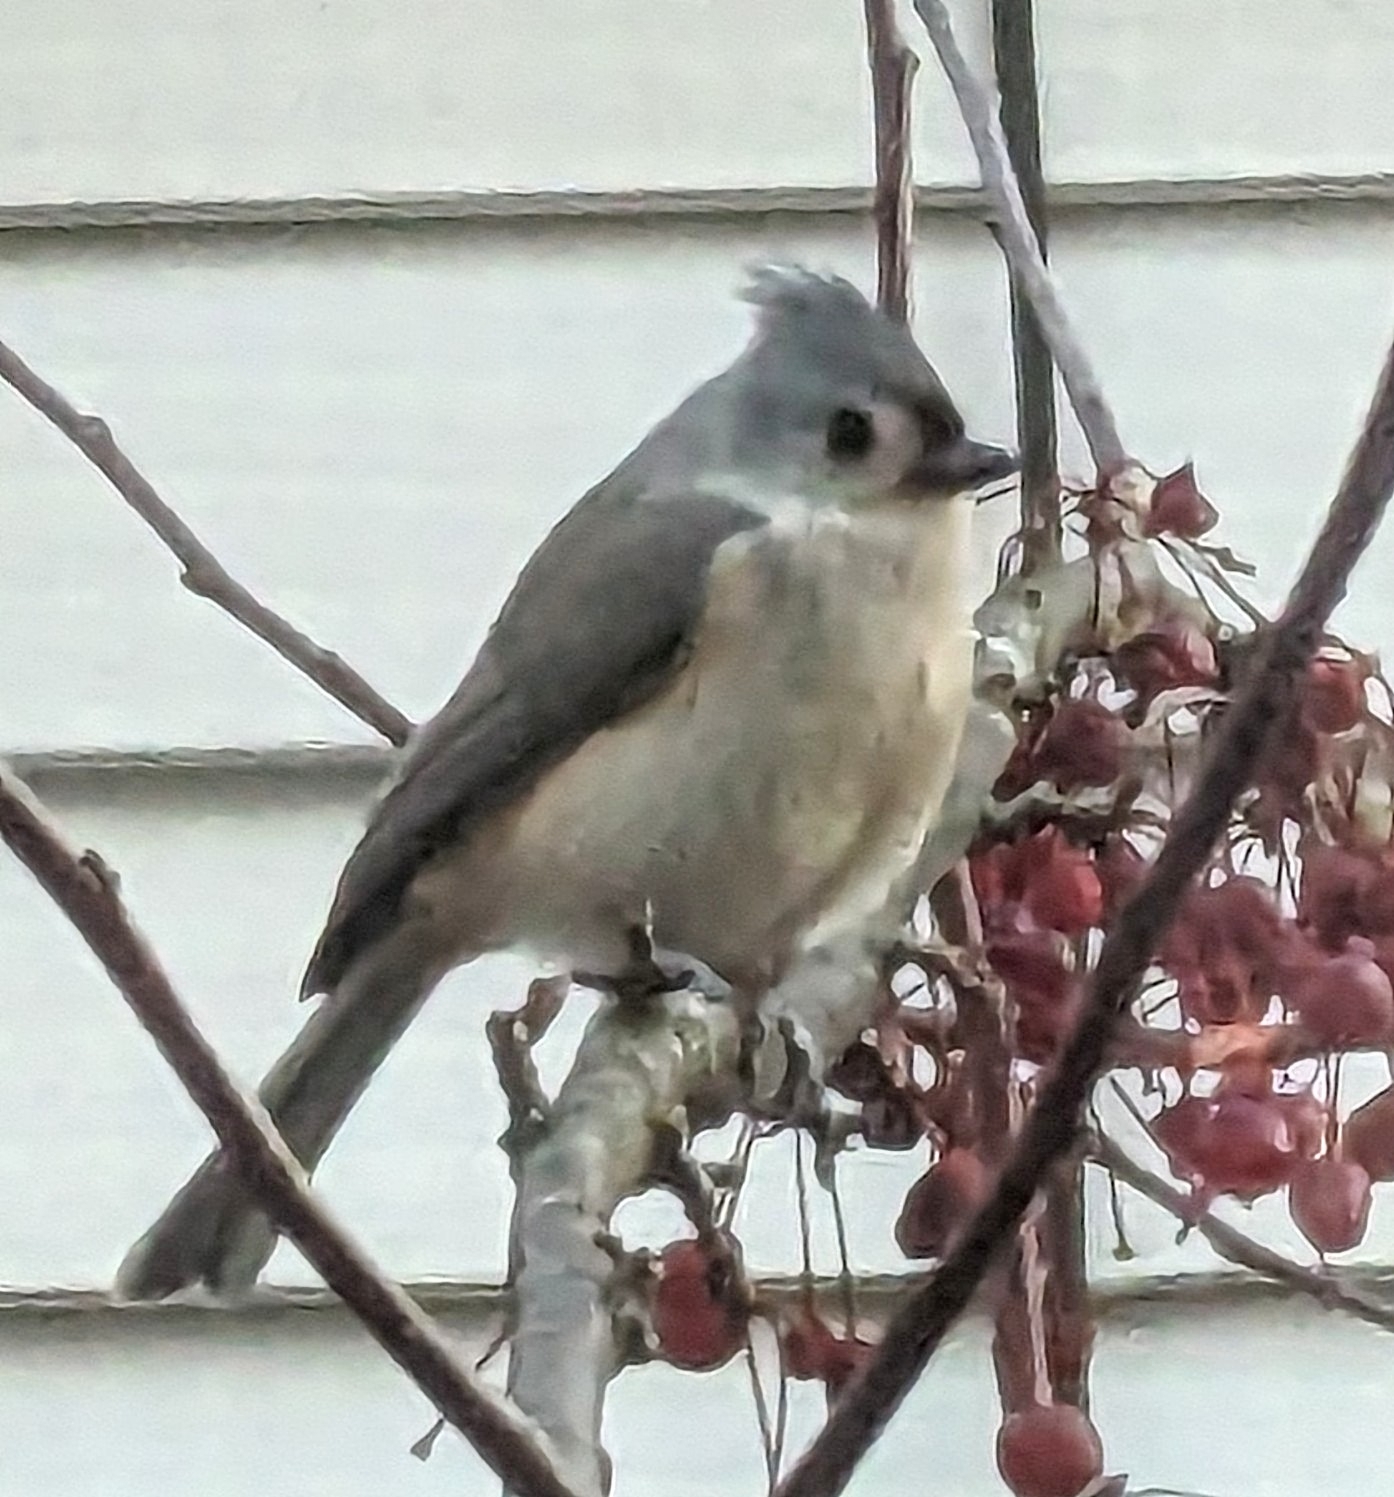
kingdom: Animalia
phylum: Chordata
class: Aves
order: Passeriformes
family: Paridae
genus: Baeolophus
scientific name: Baeolophus bicolor
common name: Tufted titmouse
